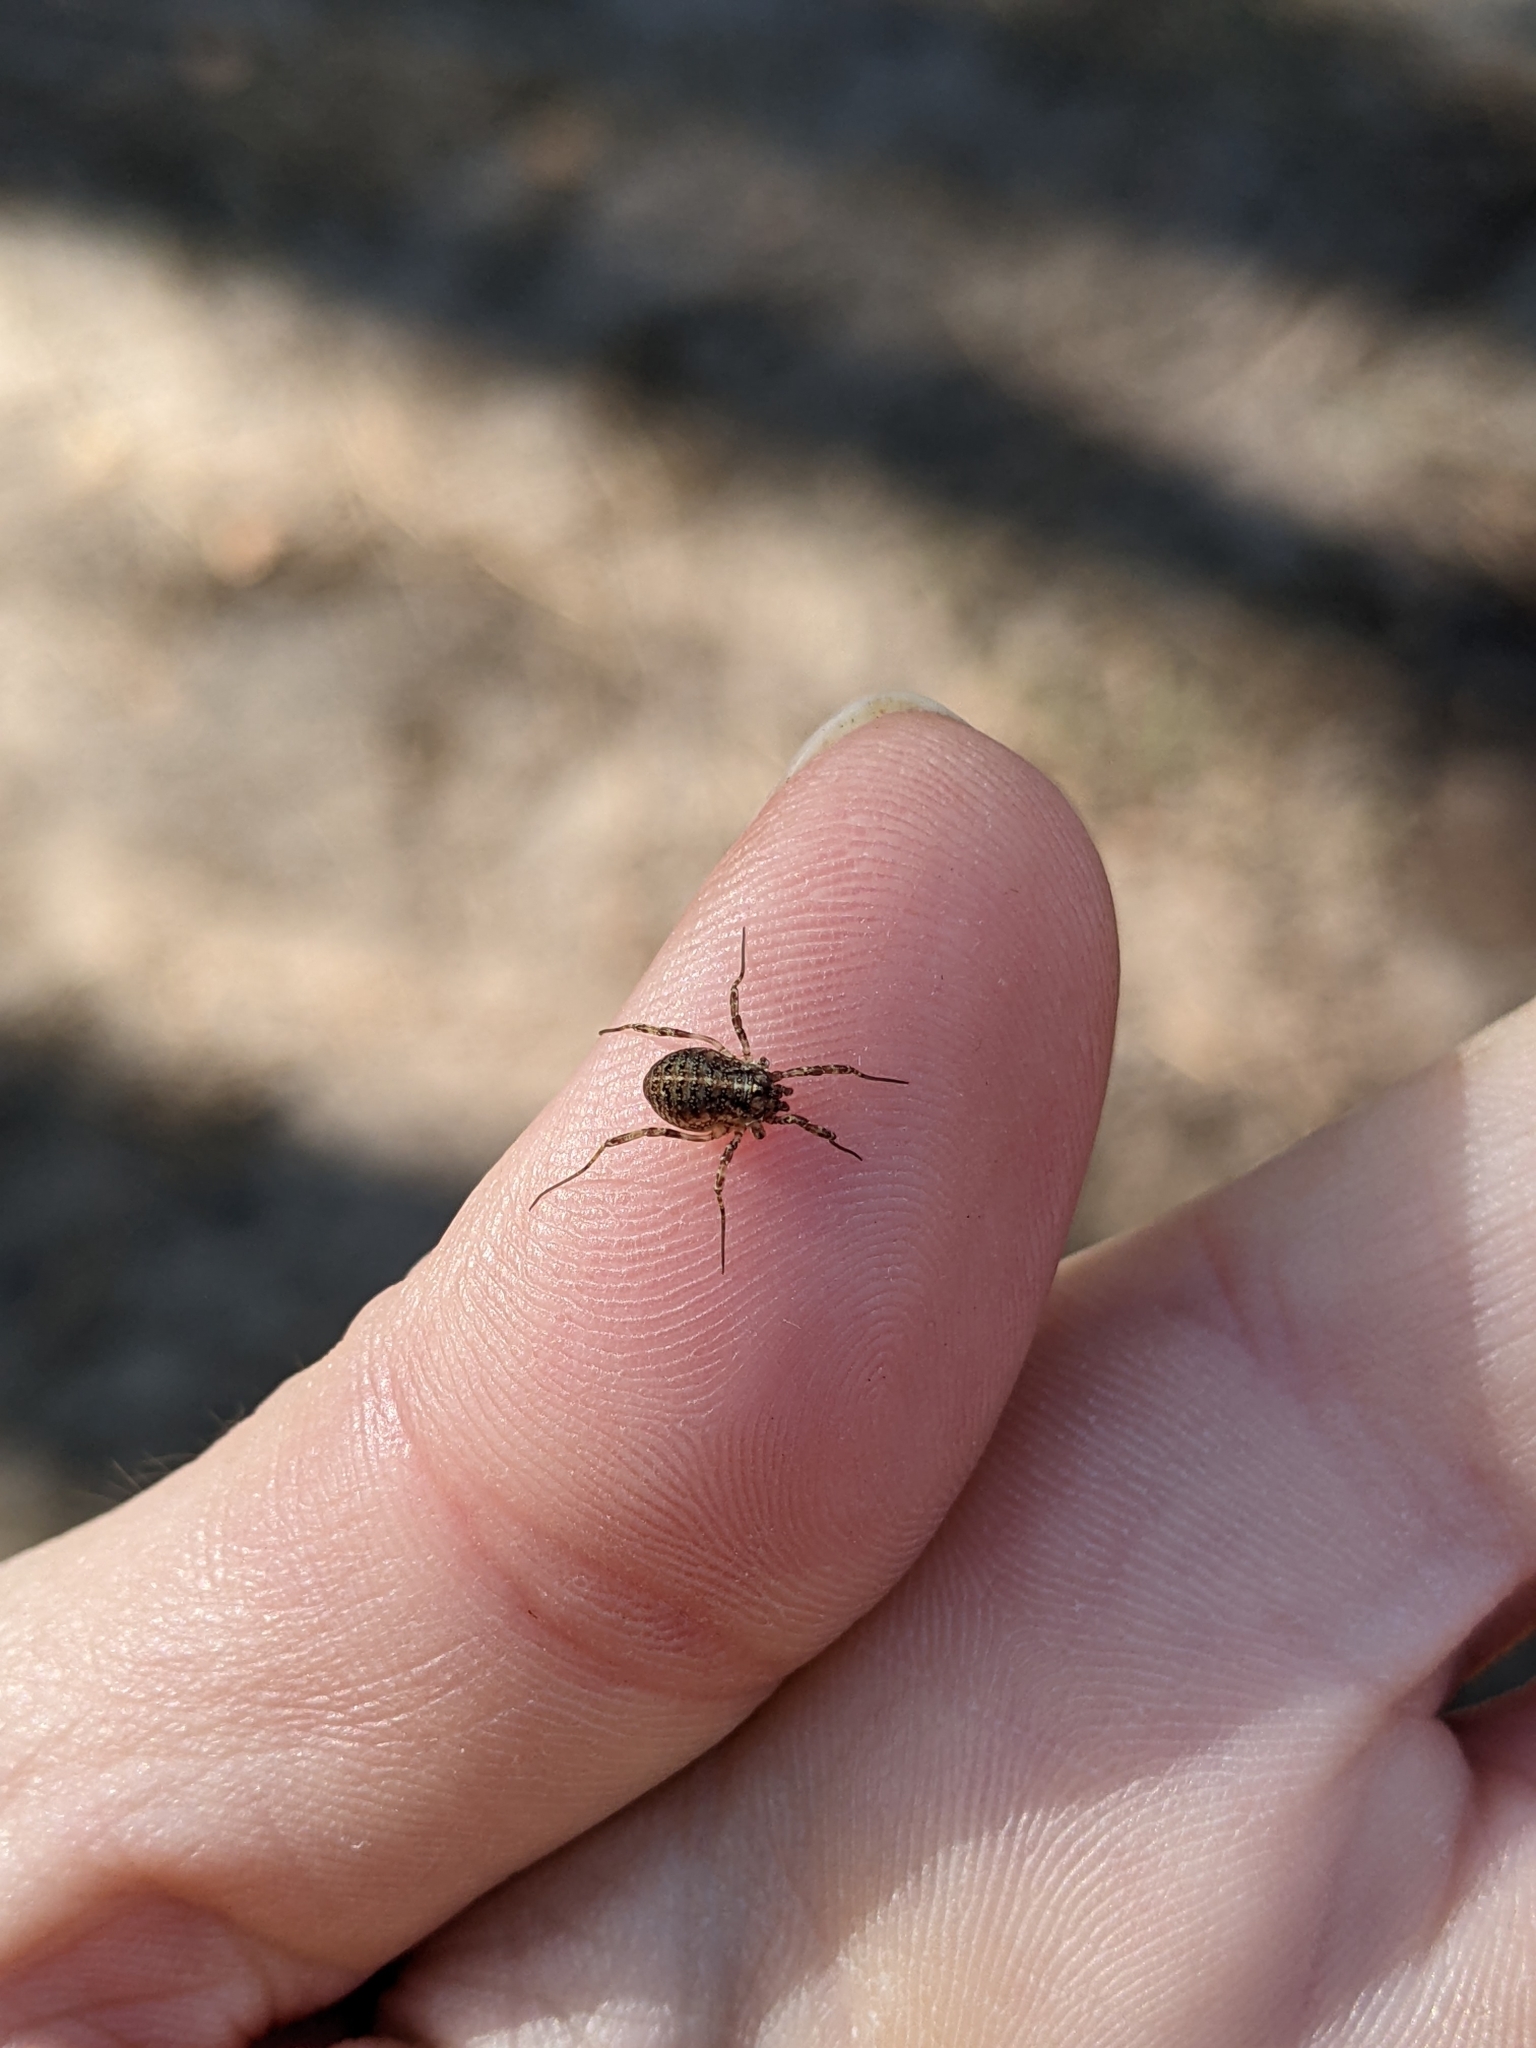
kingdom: Animalia
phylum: Arthropoda
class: Arachnida
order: Opiliones
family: Phalangiidae
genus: Paroligolophus
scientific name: Paroligolophus agrestis
